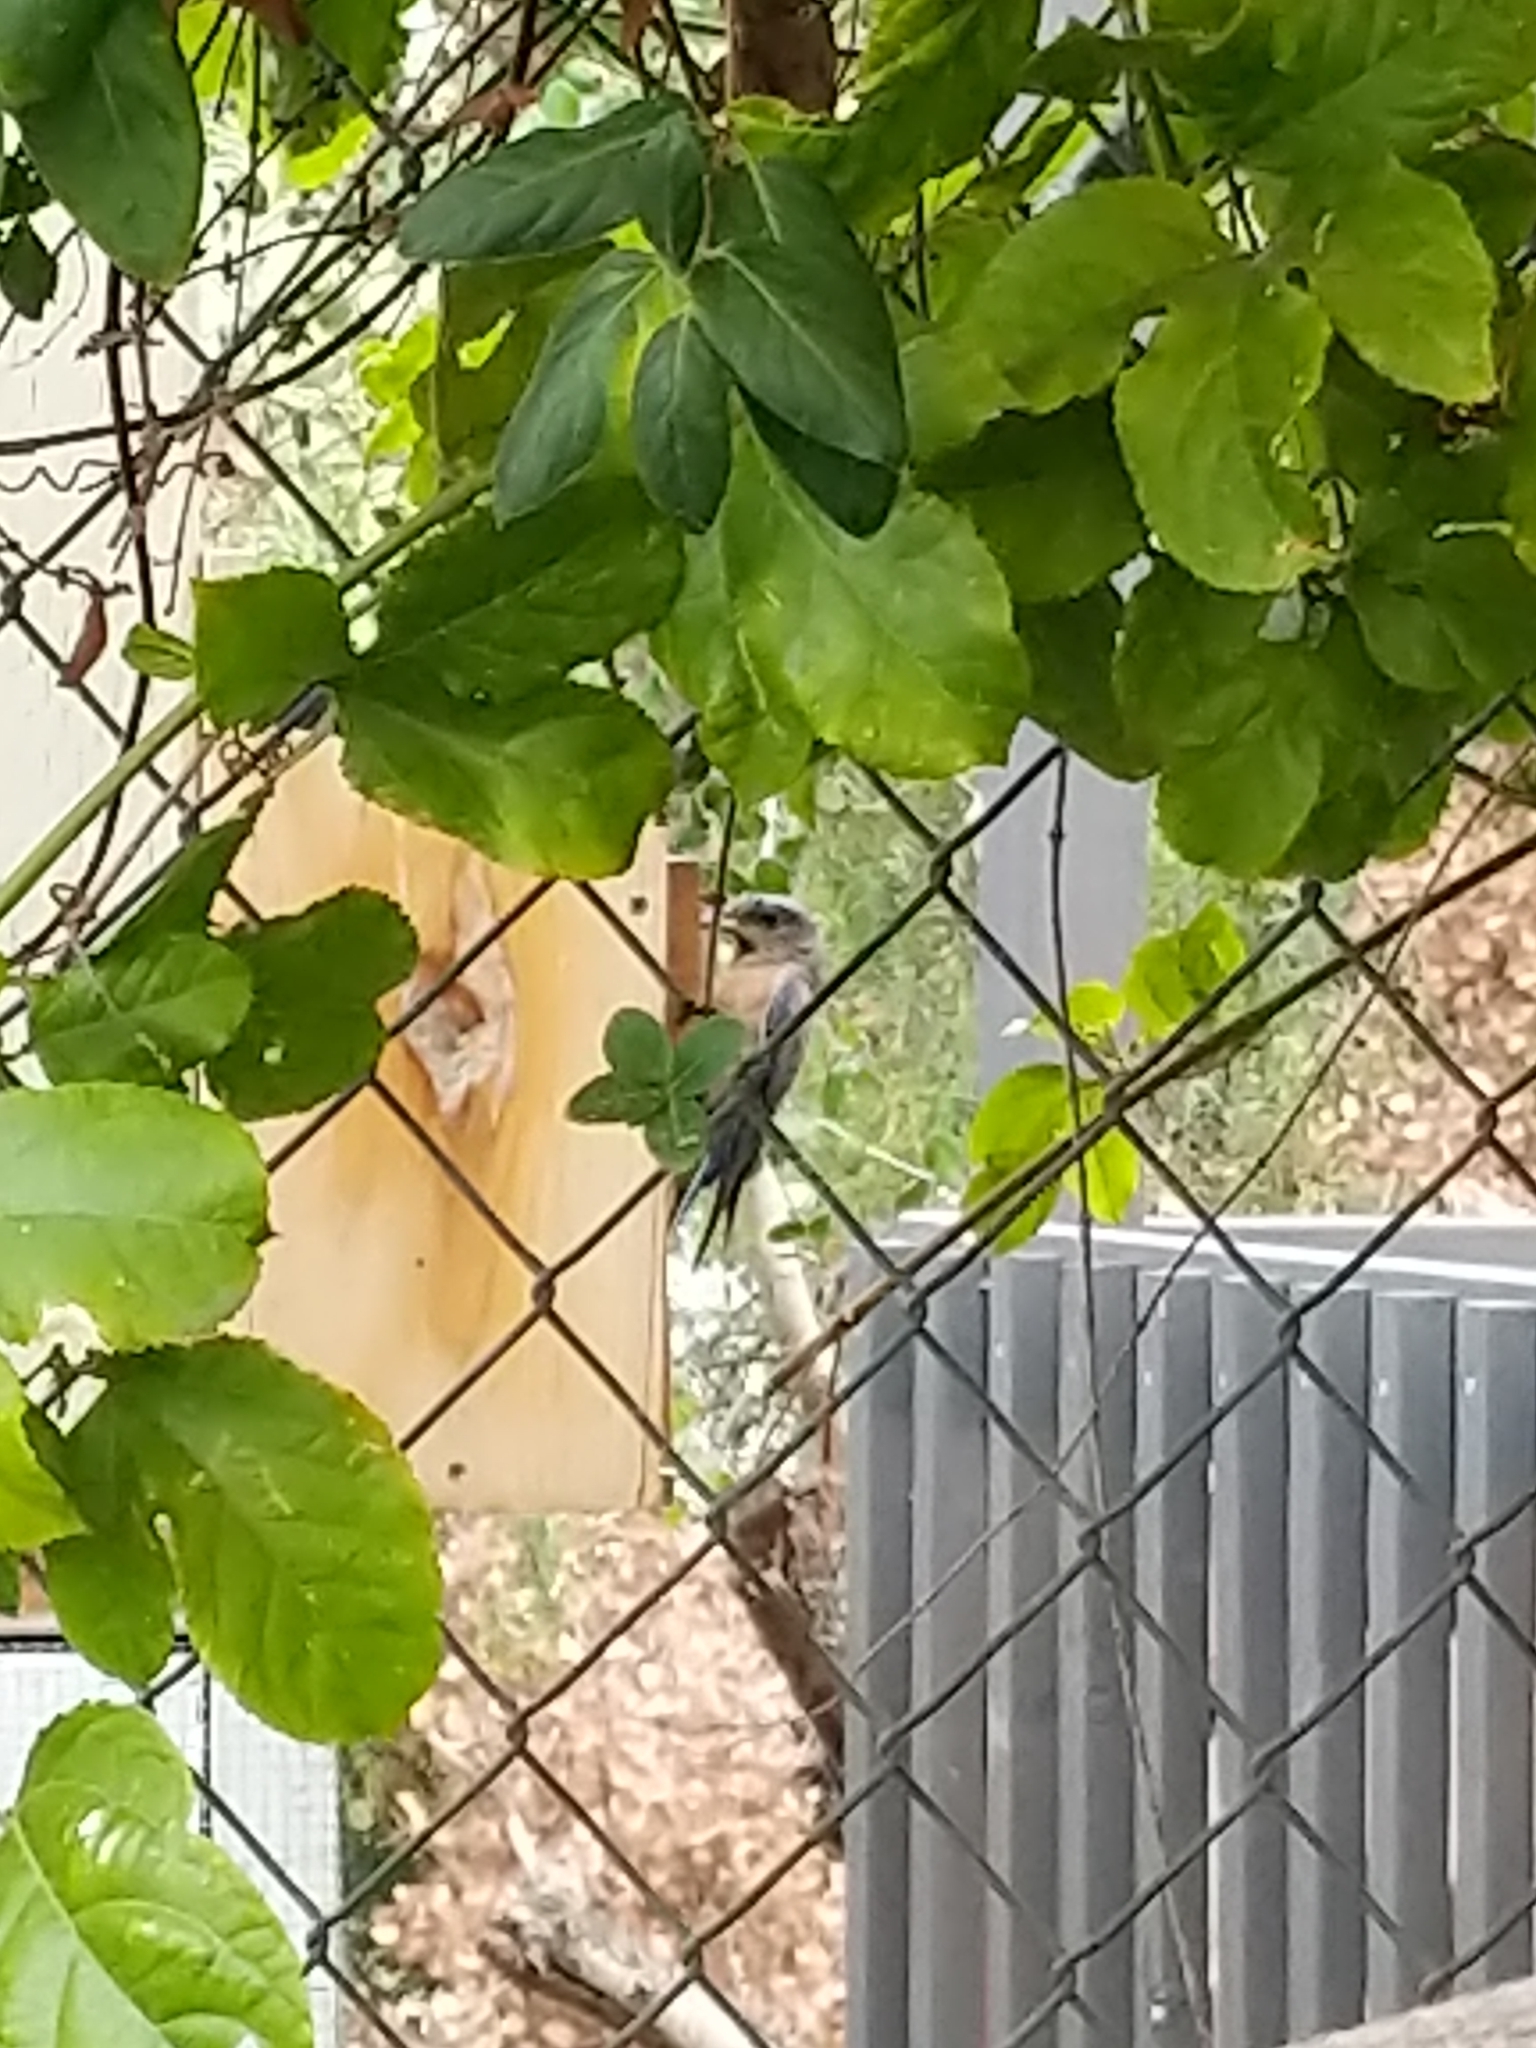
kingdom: Animalia
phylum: Chordata
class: Aves
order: Passeriformes
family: Turdidae
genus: Sialia
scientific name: Sialia mexicana
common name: Western bluebird
